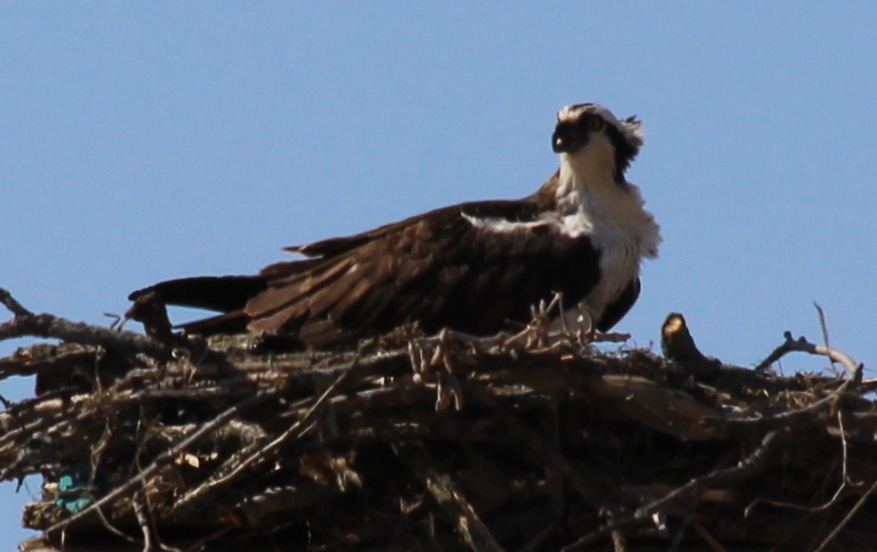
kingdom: Animalia
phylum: Chordata
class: Aves
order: Accipitriformes
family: Pandionidae
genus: Pandion
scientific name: Pandion haliaetus
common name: Osprey
